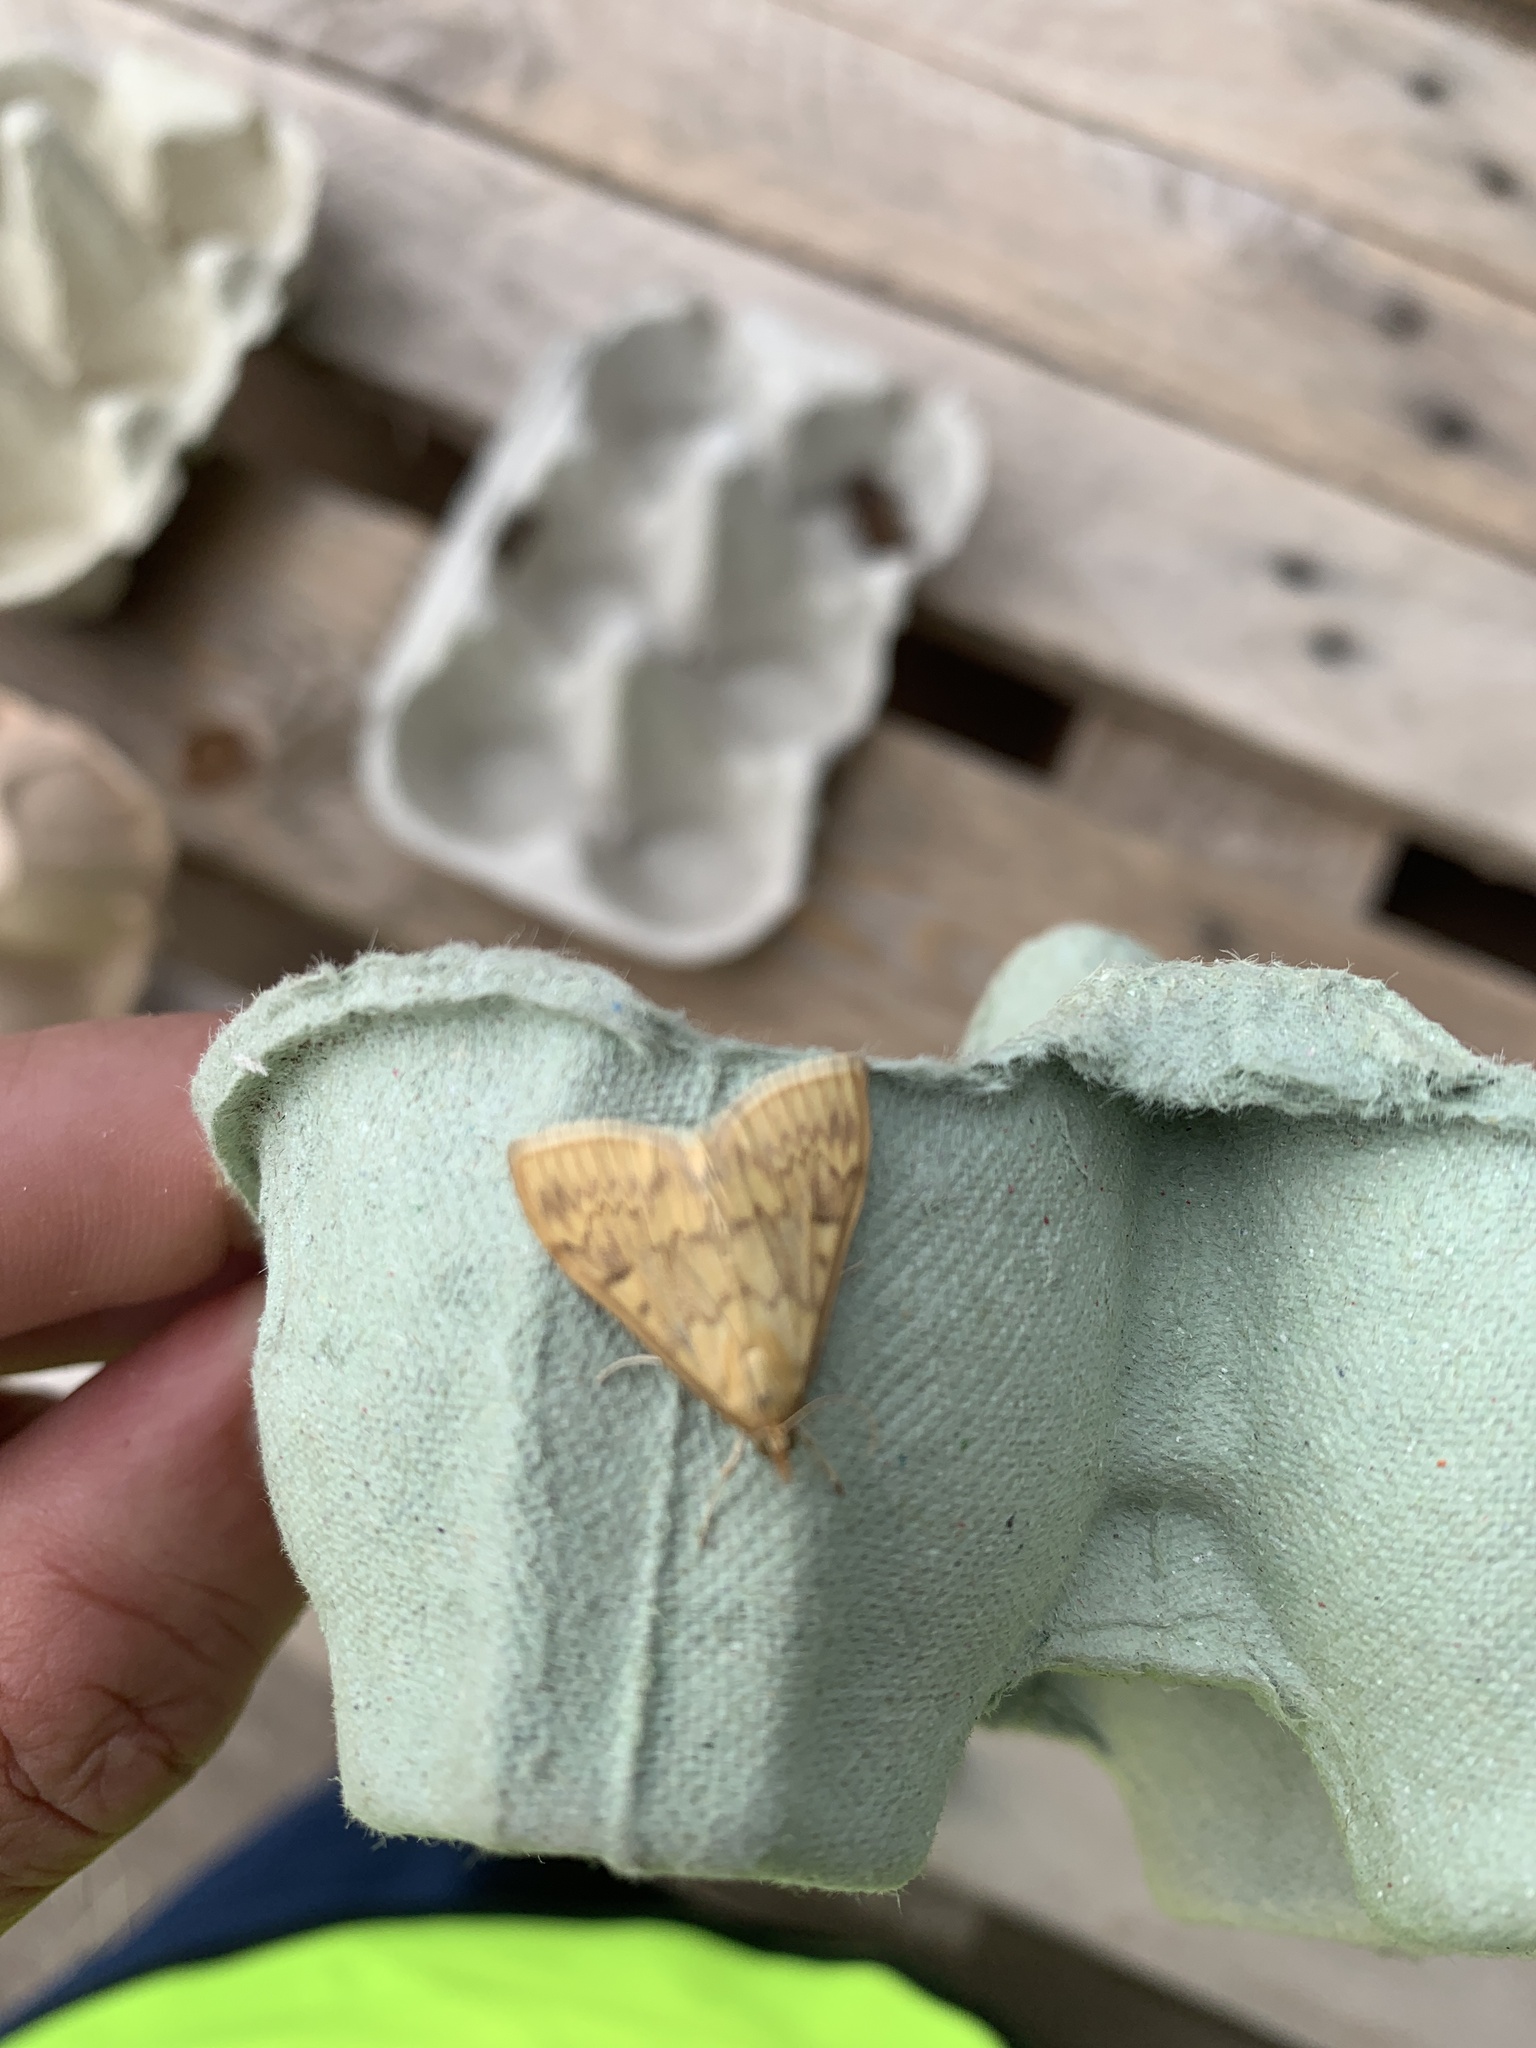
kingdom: Animalia
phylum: Arthropoda
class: Insecta
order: Lepidoptera
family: Crambidae
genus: Ostrinia
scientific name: Ostrinia nubilalis
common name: European corn borer
